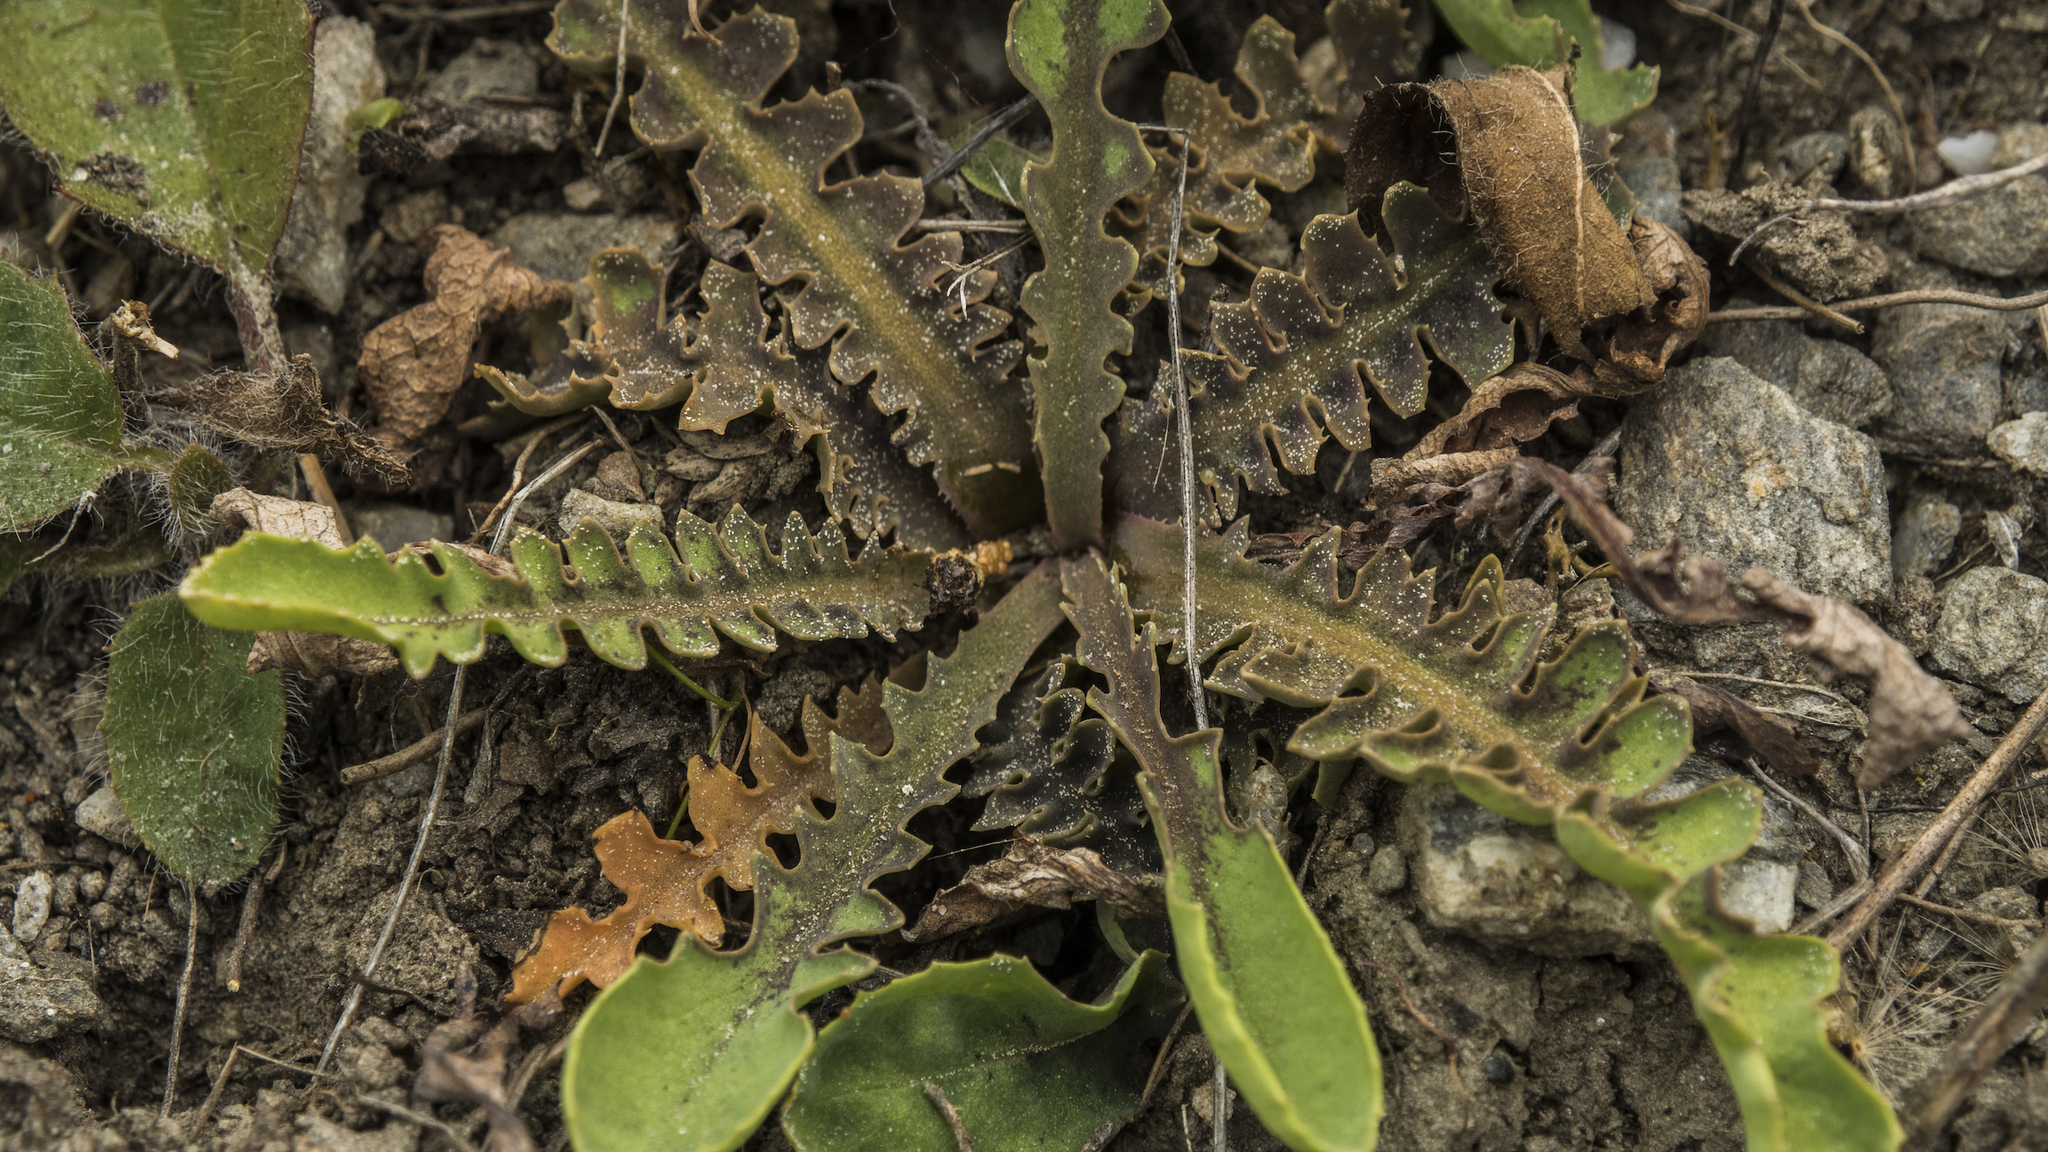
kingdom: Plantae
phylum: Tracheophyta
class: Magnoliopsida
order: Asterales
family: Asteraceae
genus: Sonchus
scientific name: Sonchus novae-zelandiae
